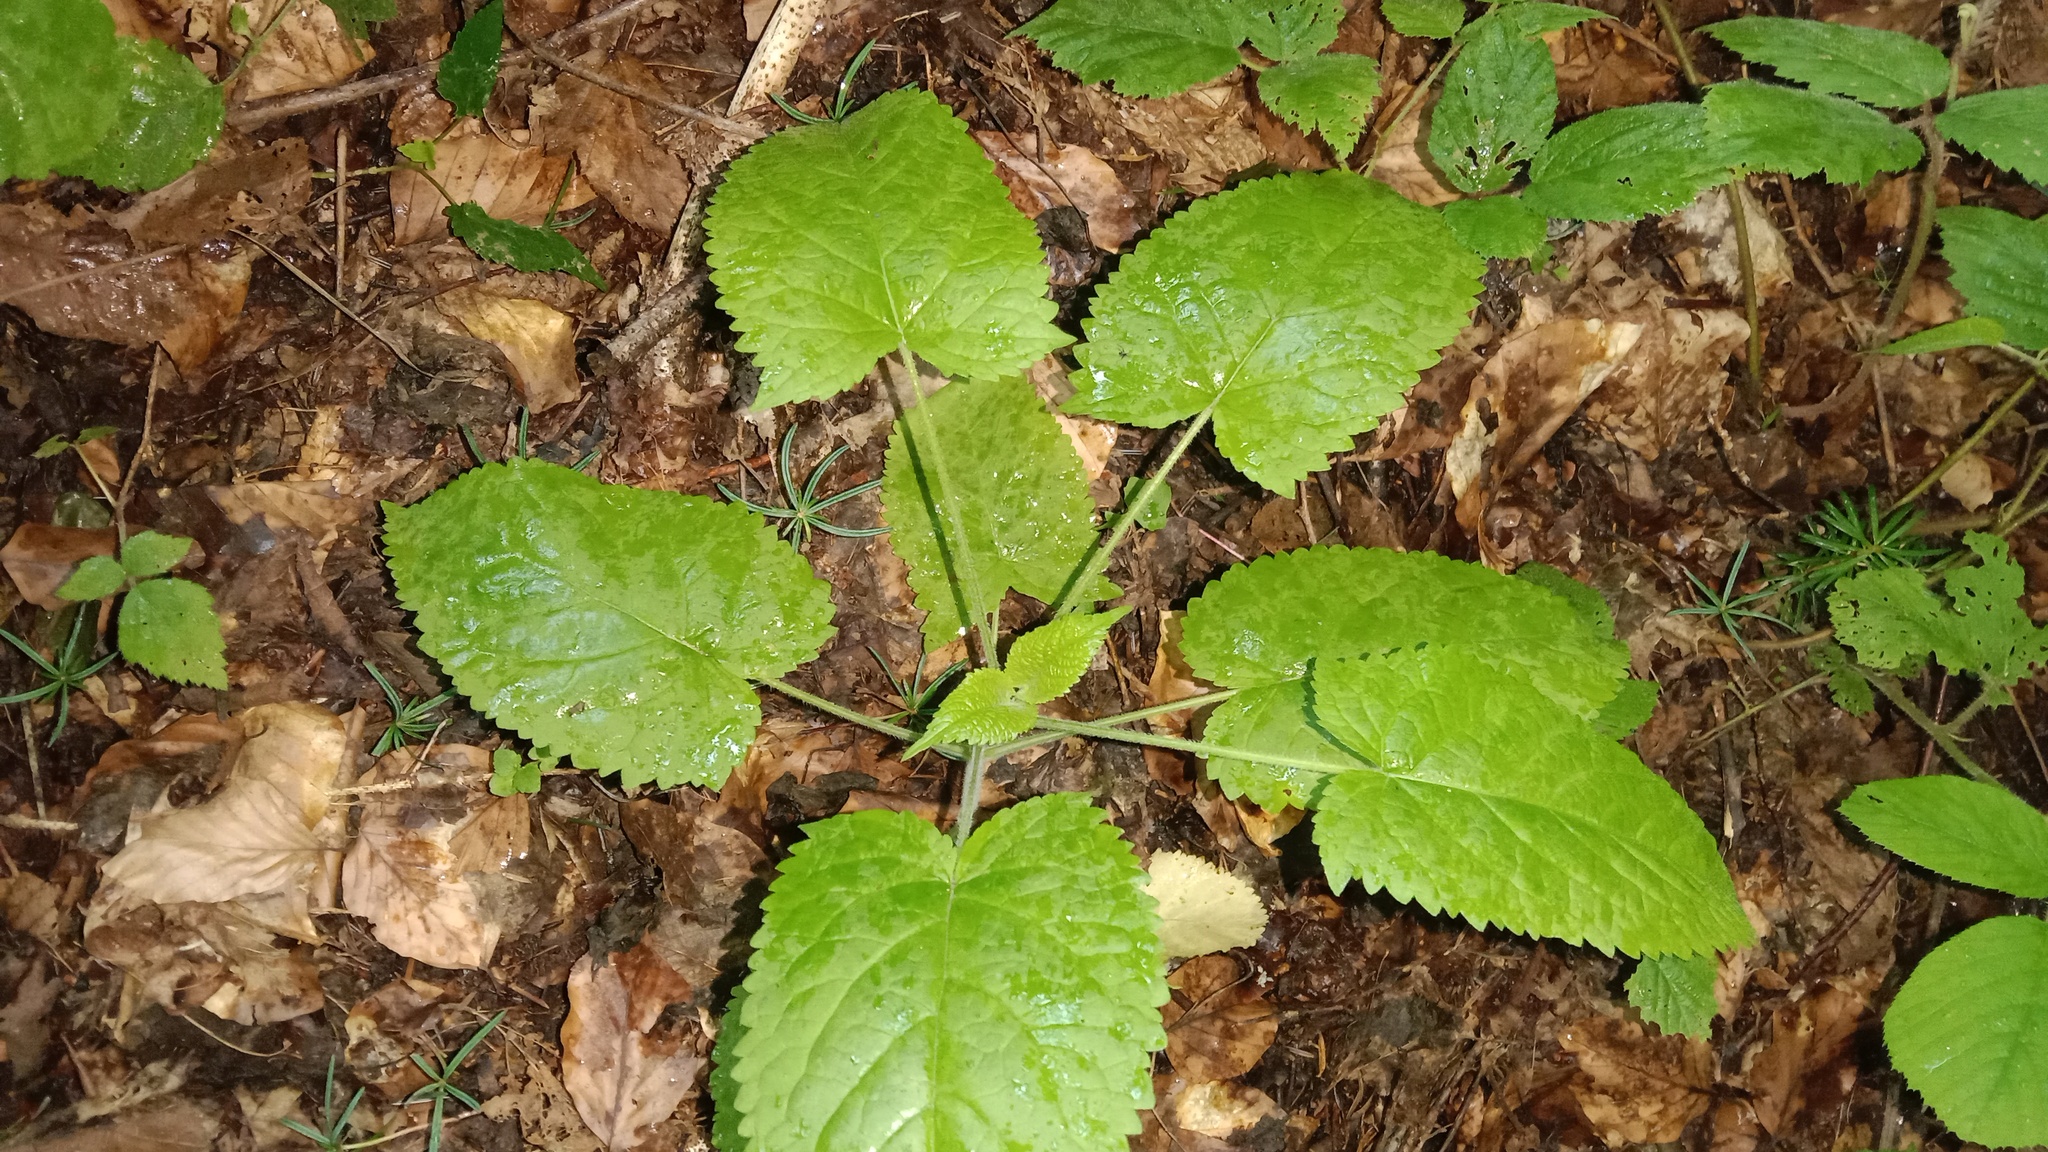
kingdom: Plantae
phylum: Tracheophyta
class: Magnoliopsida
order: Lamiales
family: Lamiaceae
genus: Salvia
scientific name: Salvia glutinosa
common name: Sticky clary
